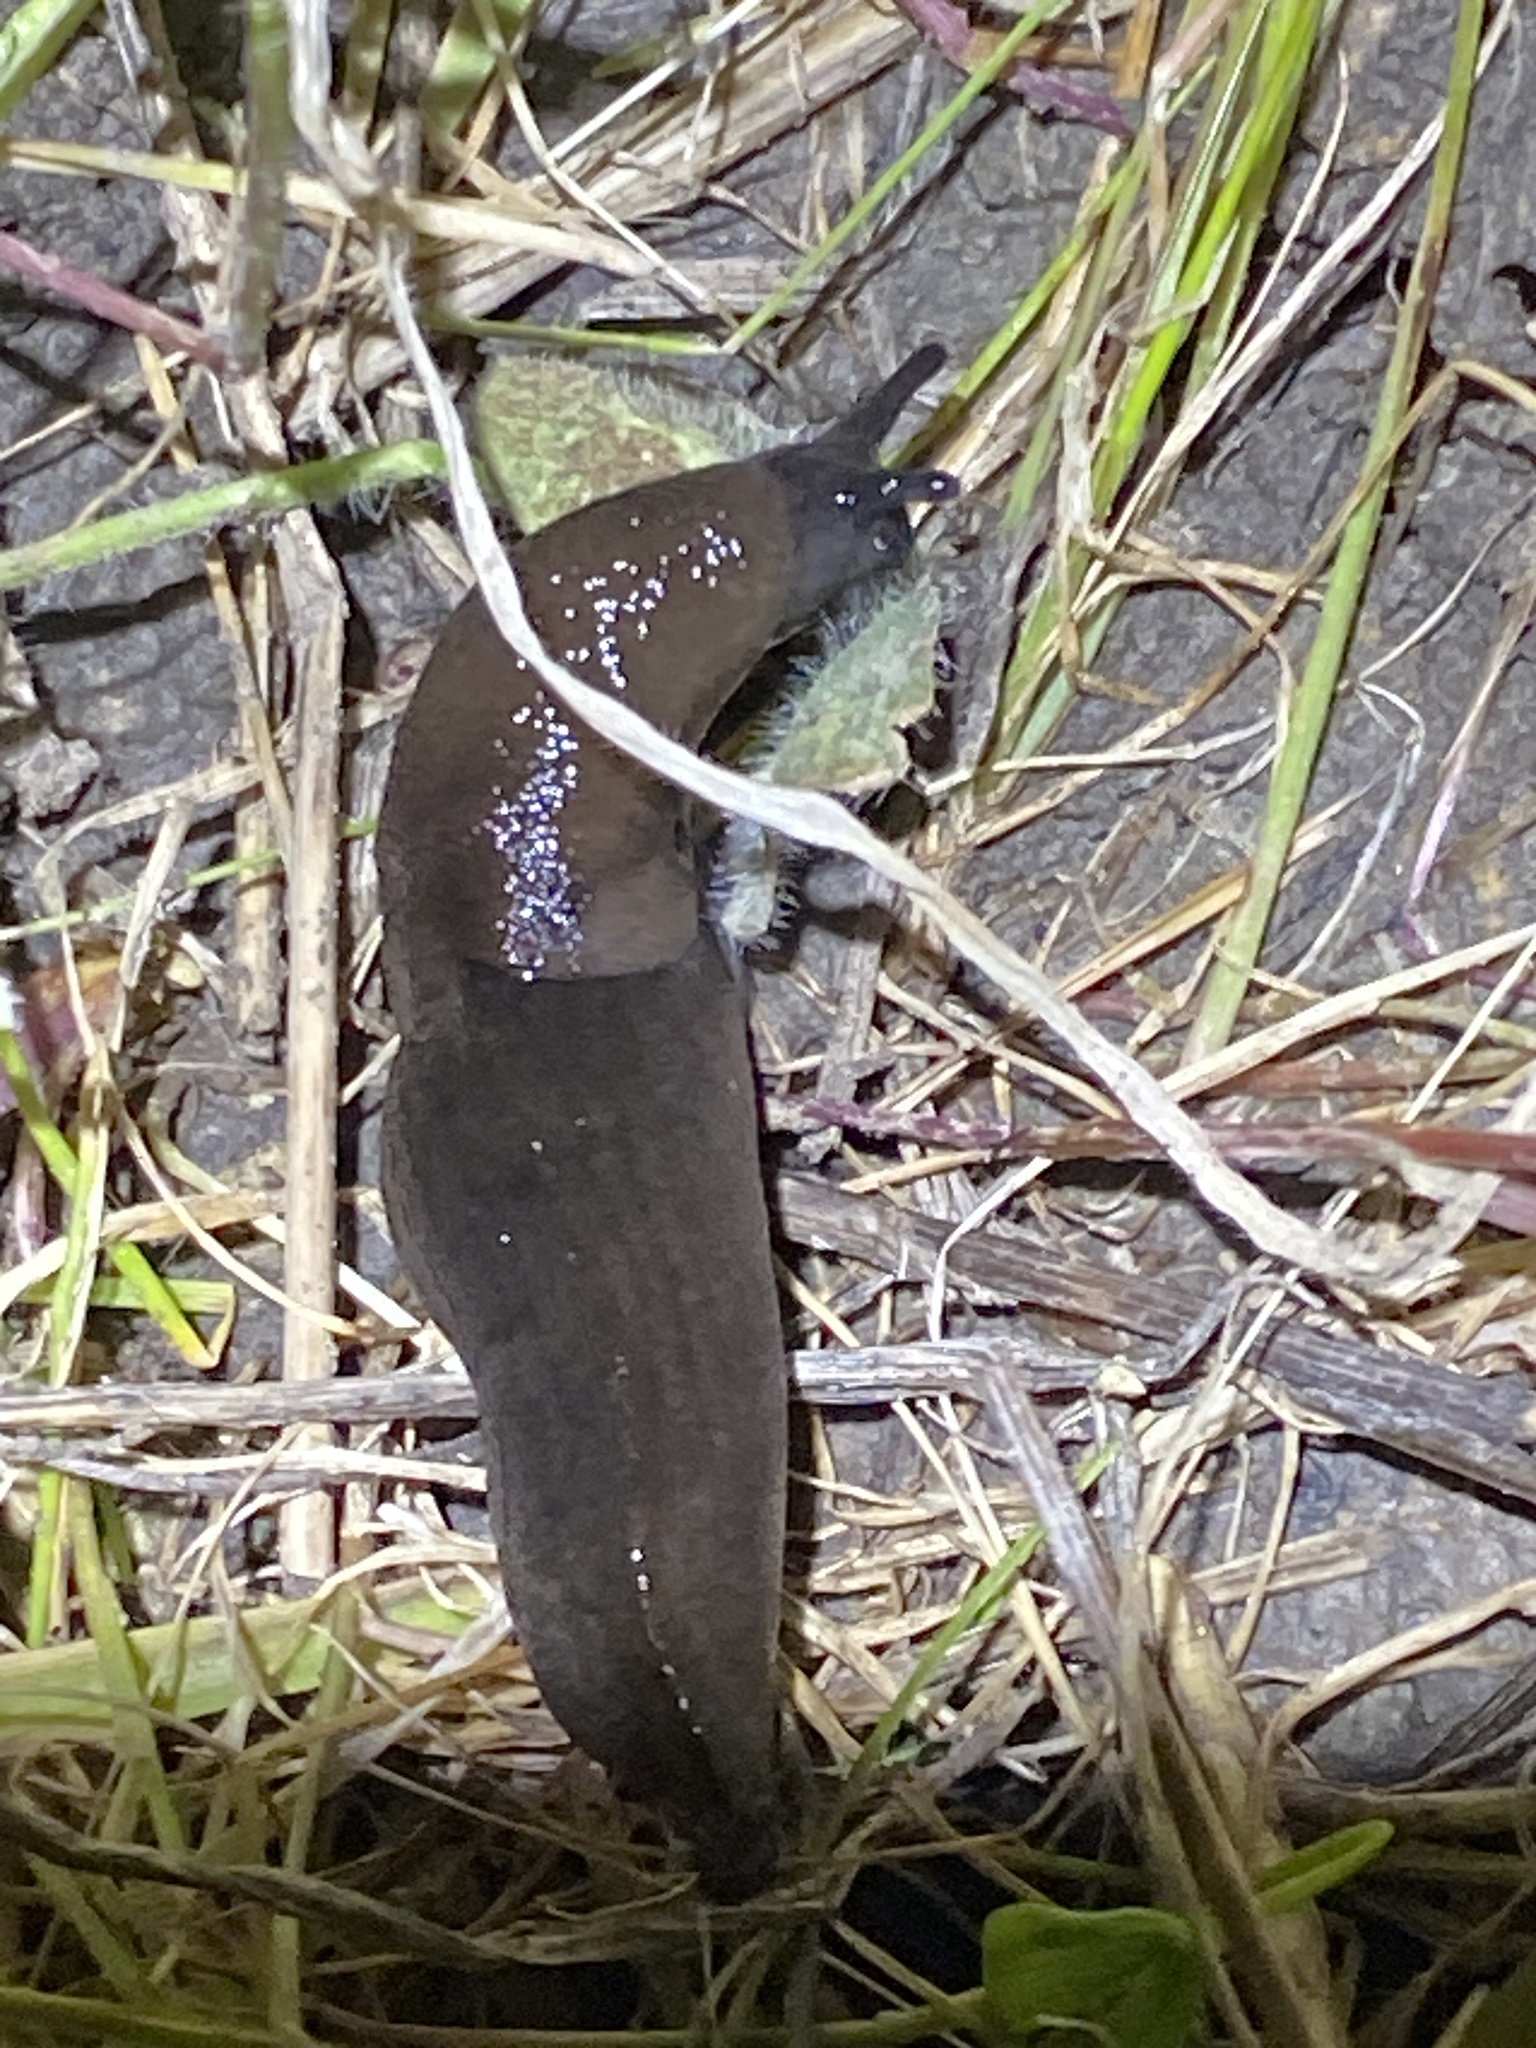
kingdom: Animalia
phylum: Mollusca
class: Gastropoda
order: Stylommatophora
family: Milacidae
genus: Milax
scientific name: Milax gagates
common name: Greenhouse slug
